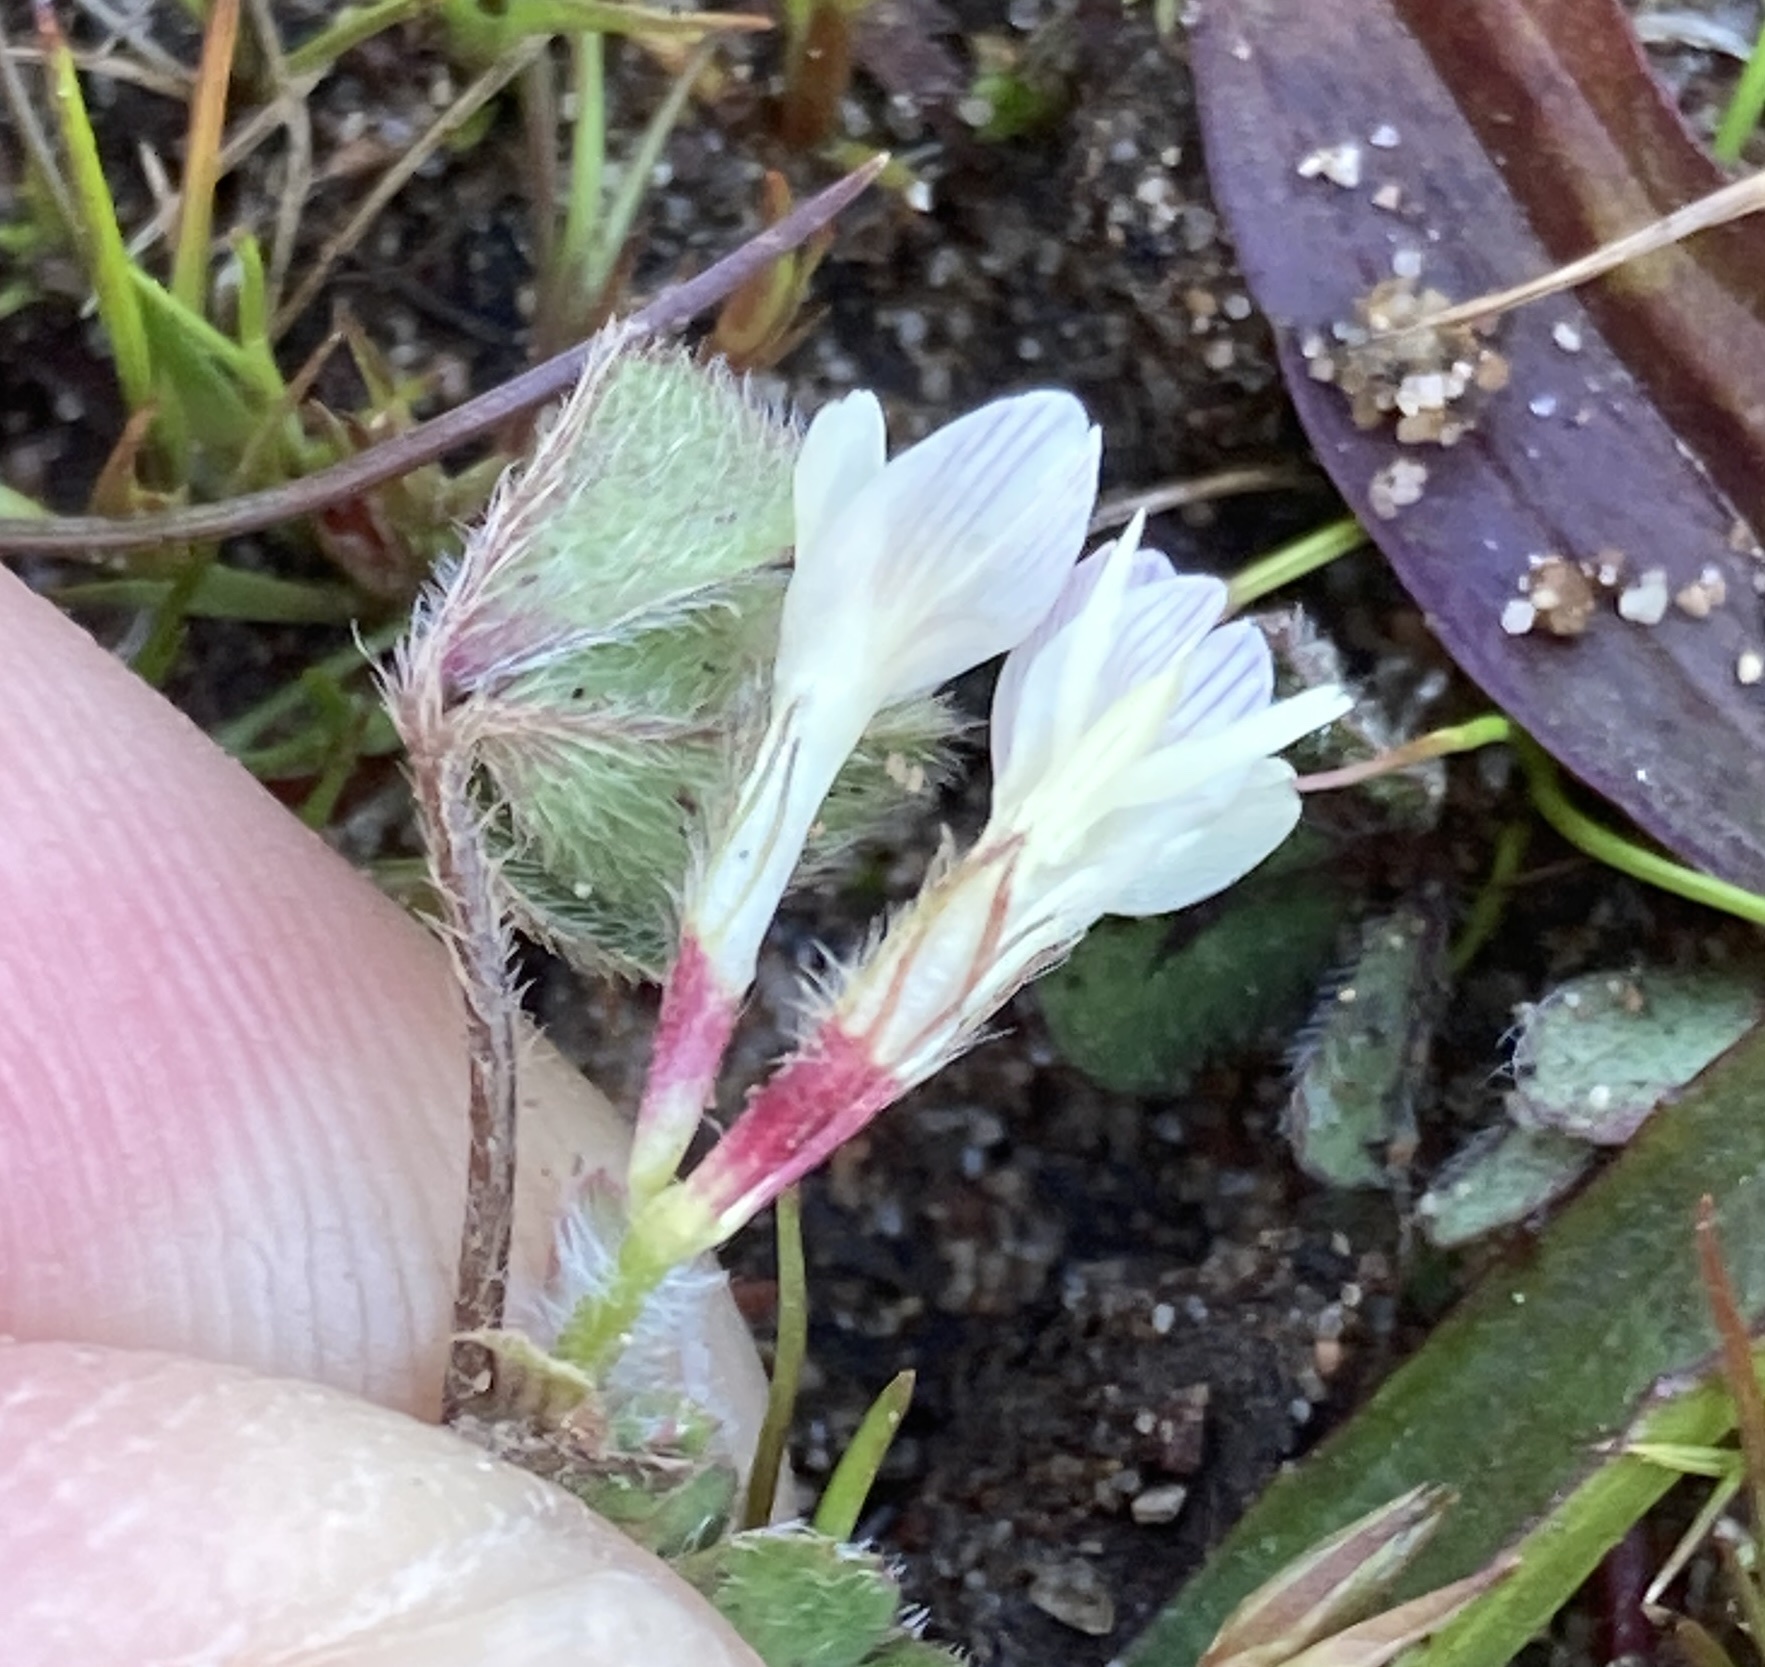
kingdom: Plantae
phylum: Tracheophyta
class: Magnoliopsida
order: Fabales
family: Fabaceae
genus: Trifolium
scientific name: Trifolium subterraneum
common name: Subterranean clover
